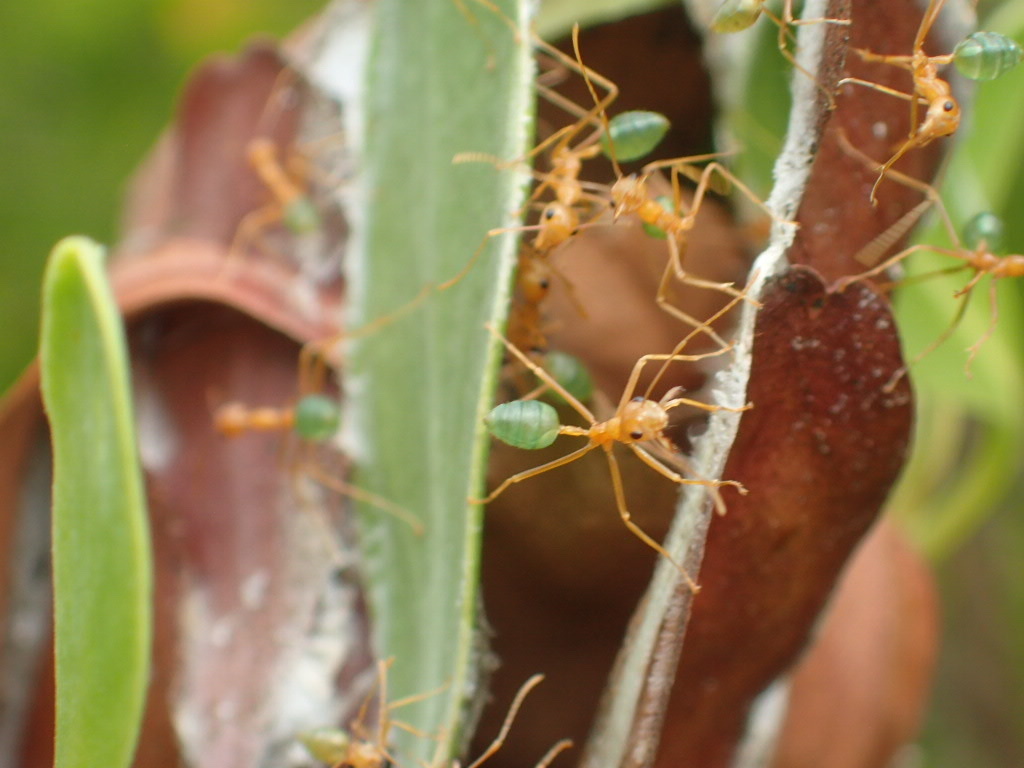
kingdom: Animalia
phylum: Arthropoda
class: Insecta
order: Hymenoptera
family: Formicidae
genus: Oecophylla
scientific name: Oecophylla smaragdina
